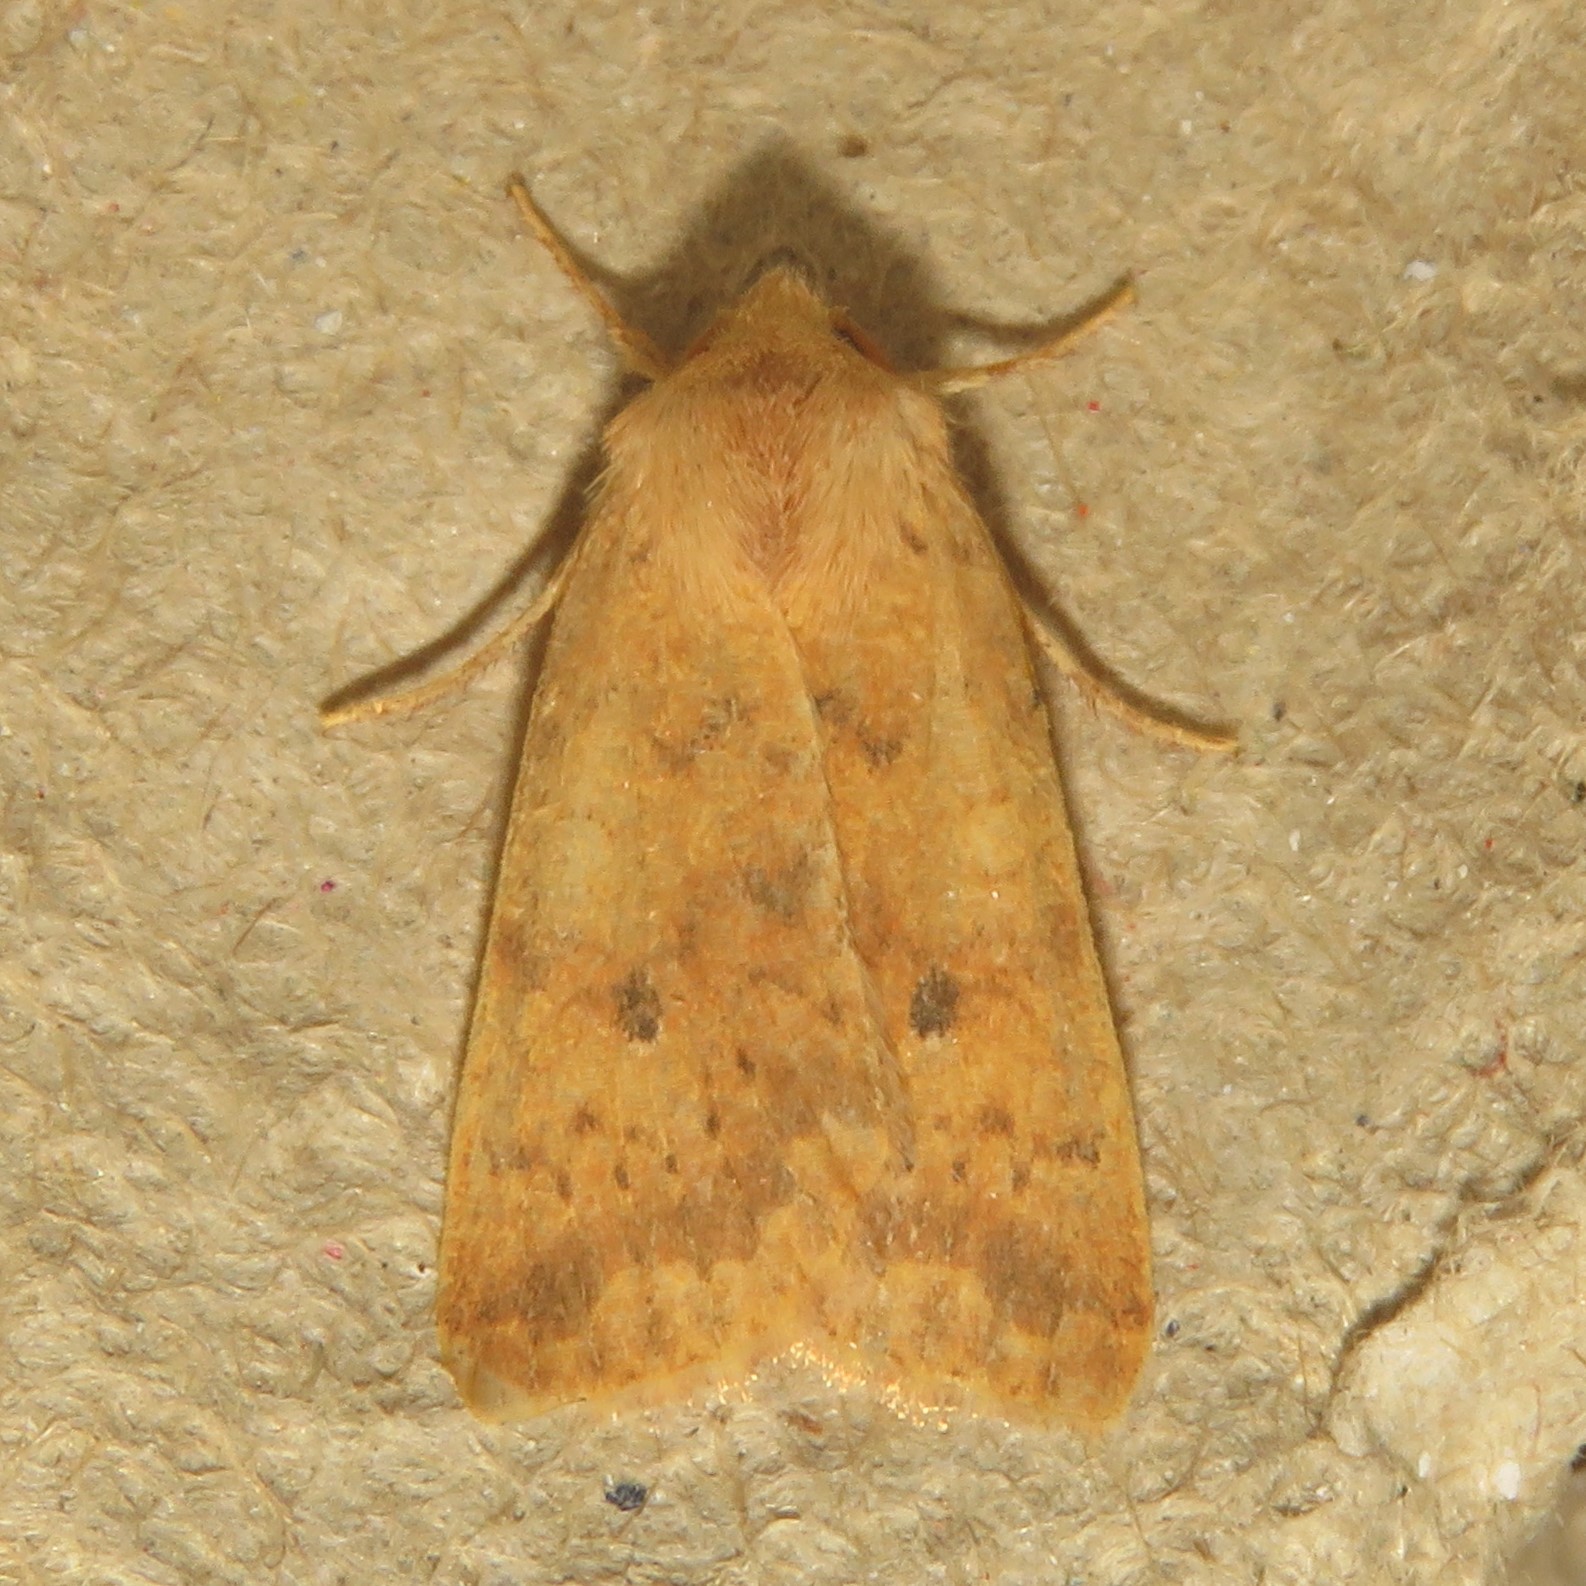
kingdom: Animalia
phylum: Arthropoda
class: Insecta
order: Lepidoptera
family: Noctuidae
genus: Agrochola
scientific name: Agrochola bicolorago
